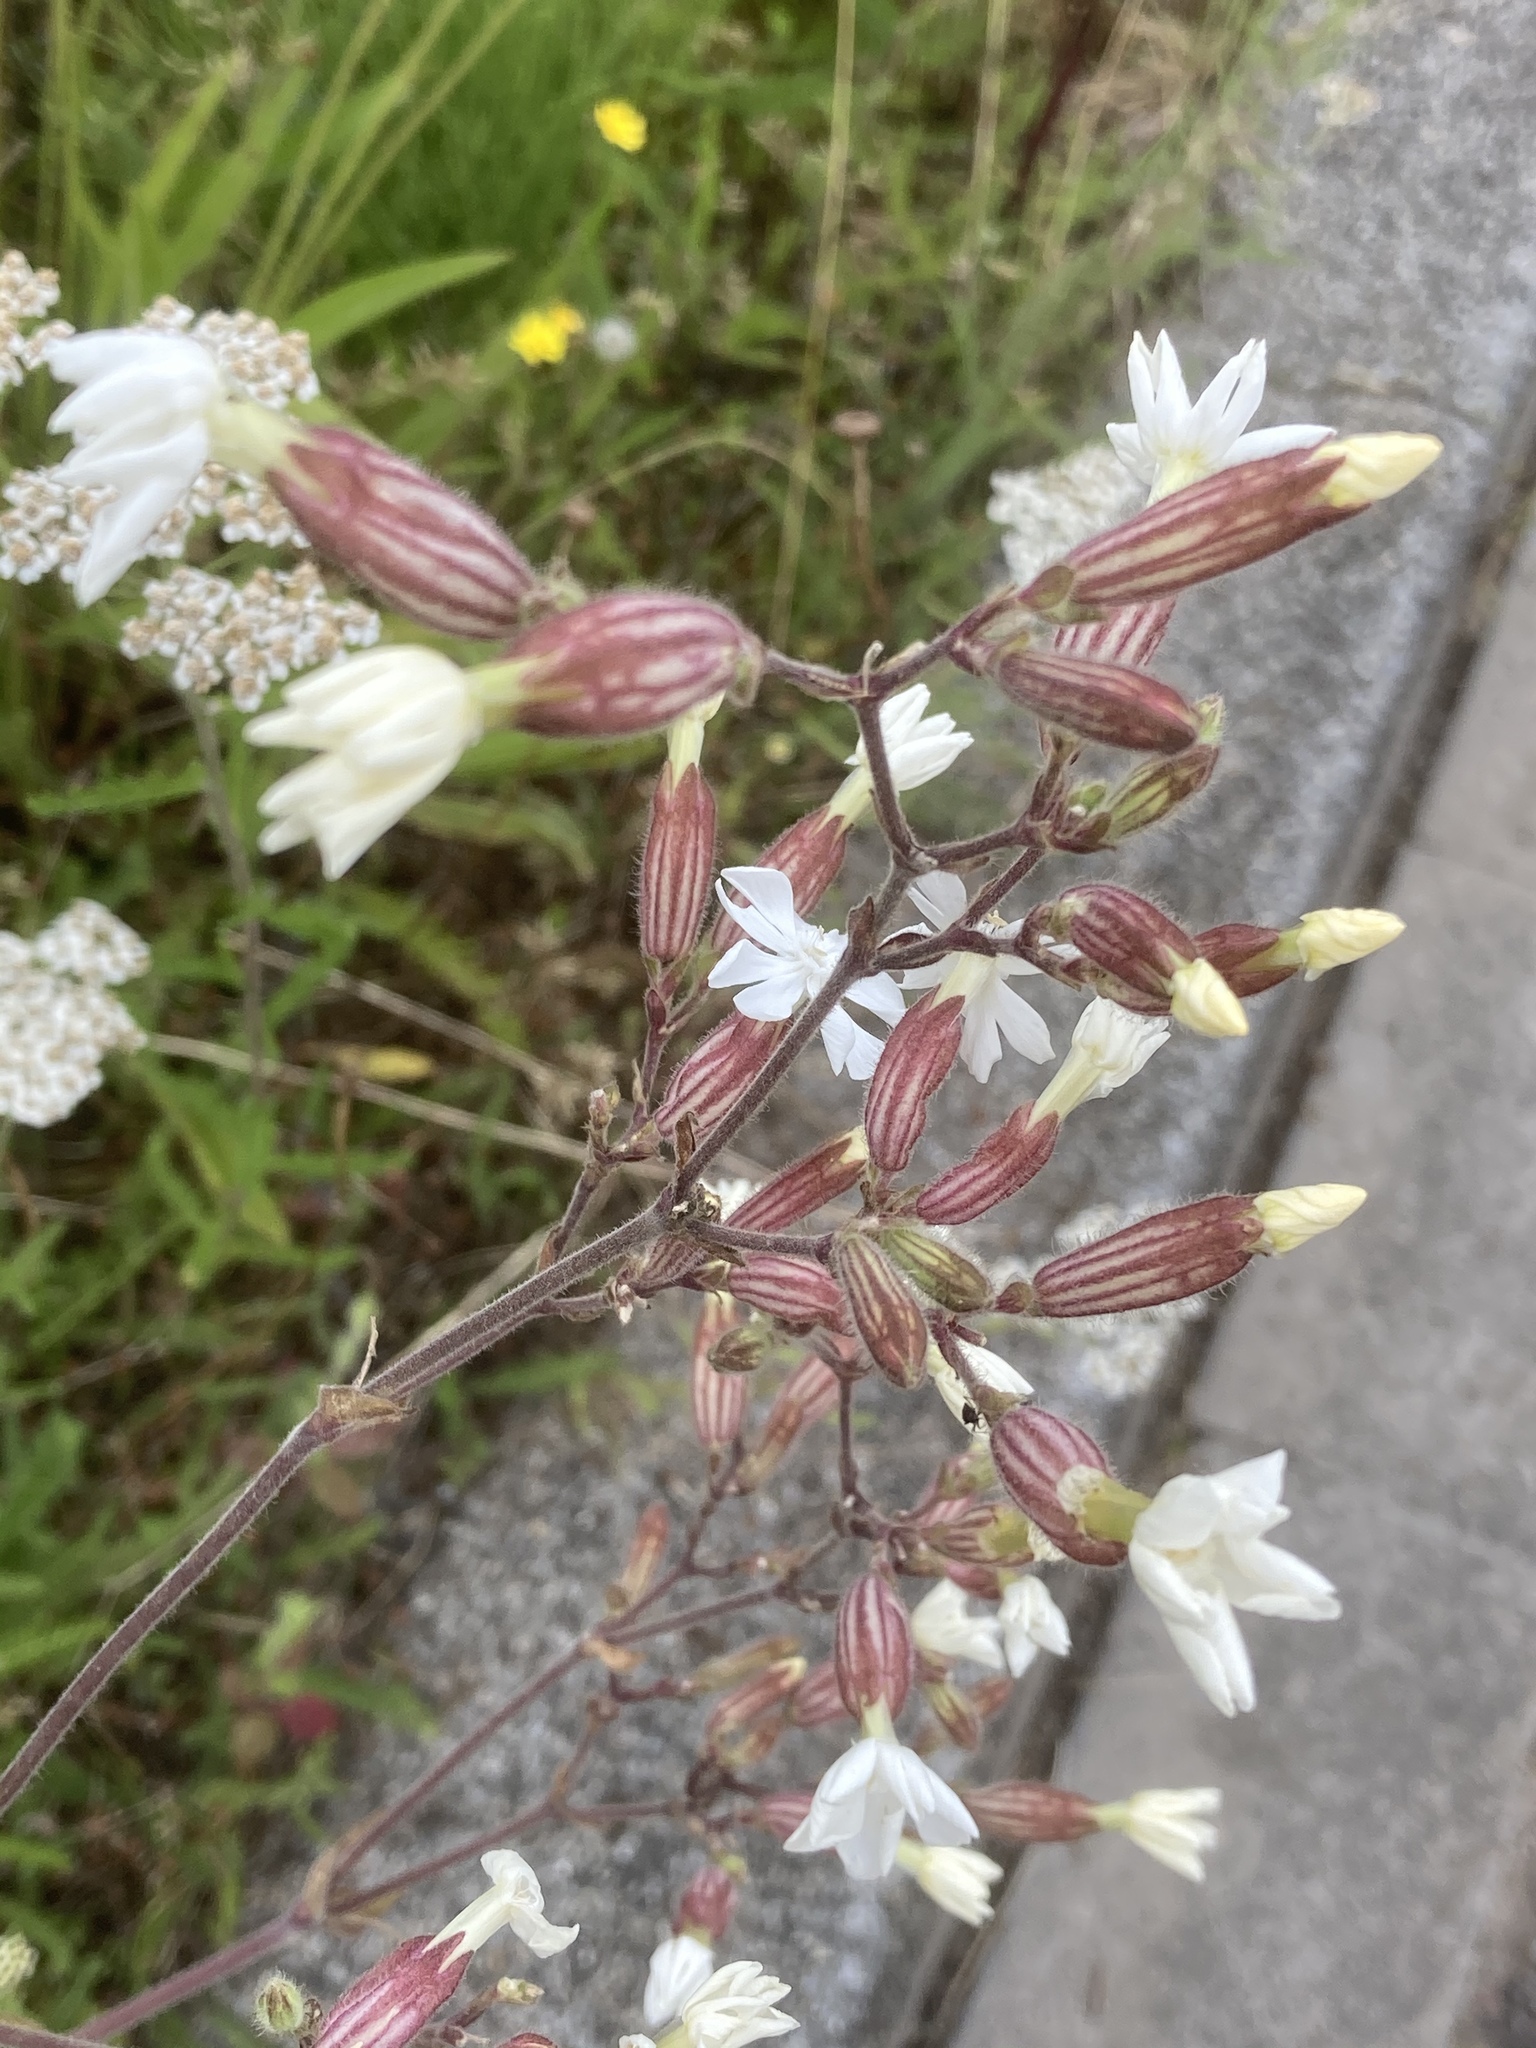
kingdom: Plantae
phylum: Tracheophyta
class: Magnoliopsida
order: Caryophyllales
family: Caryophyllaceae
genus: Silene
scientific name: Silene latifolia
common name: White campion
